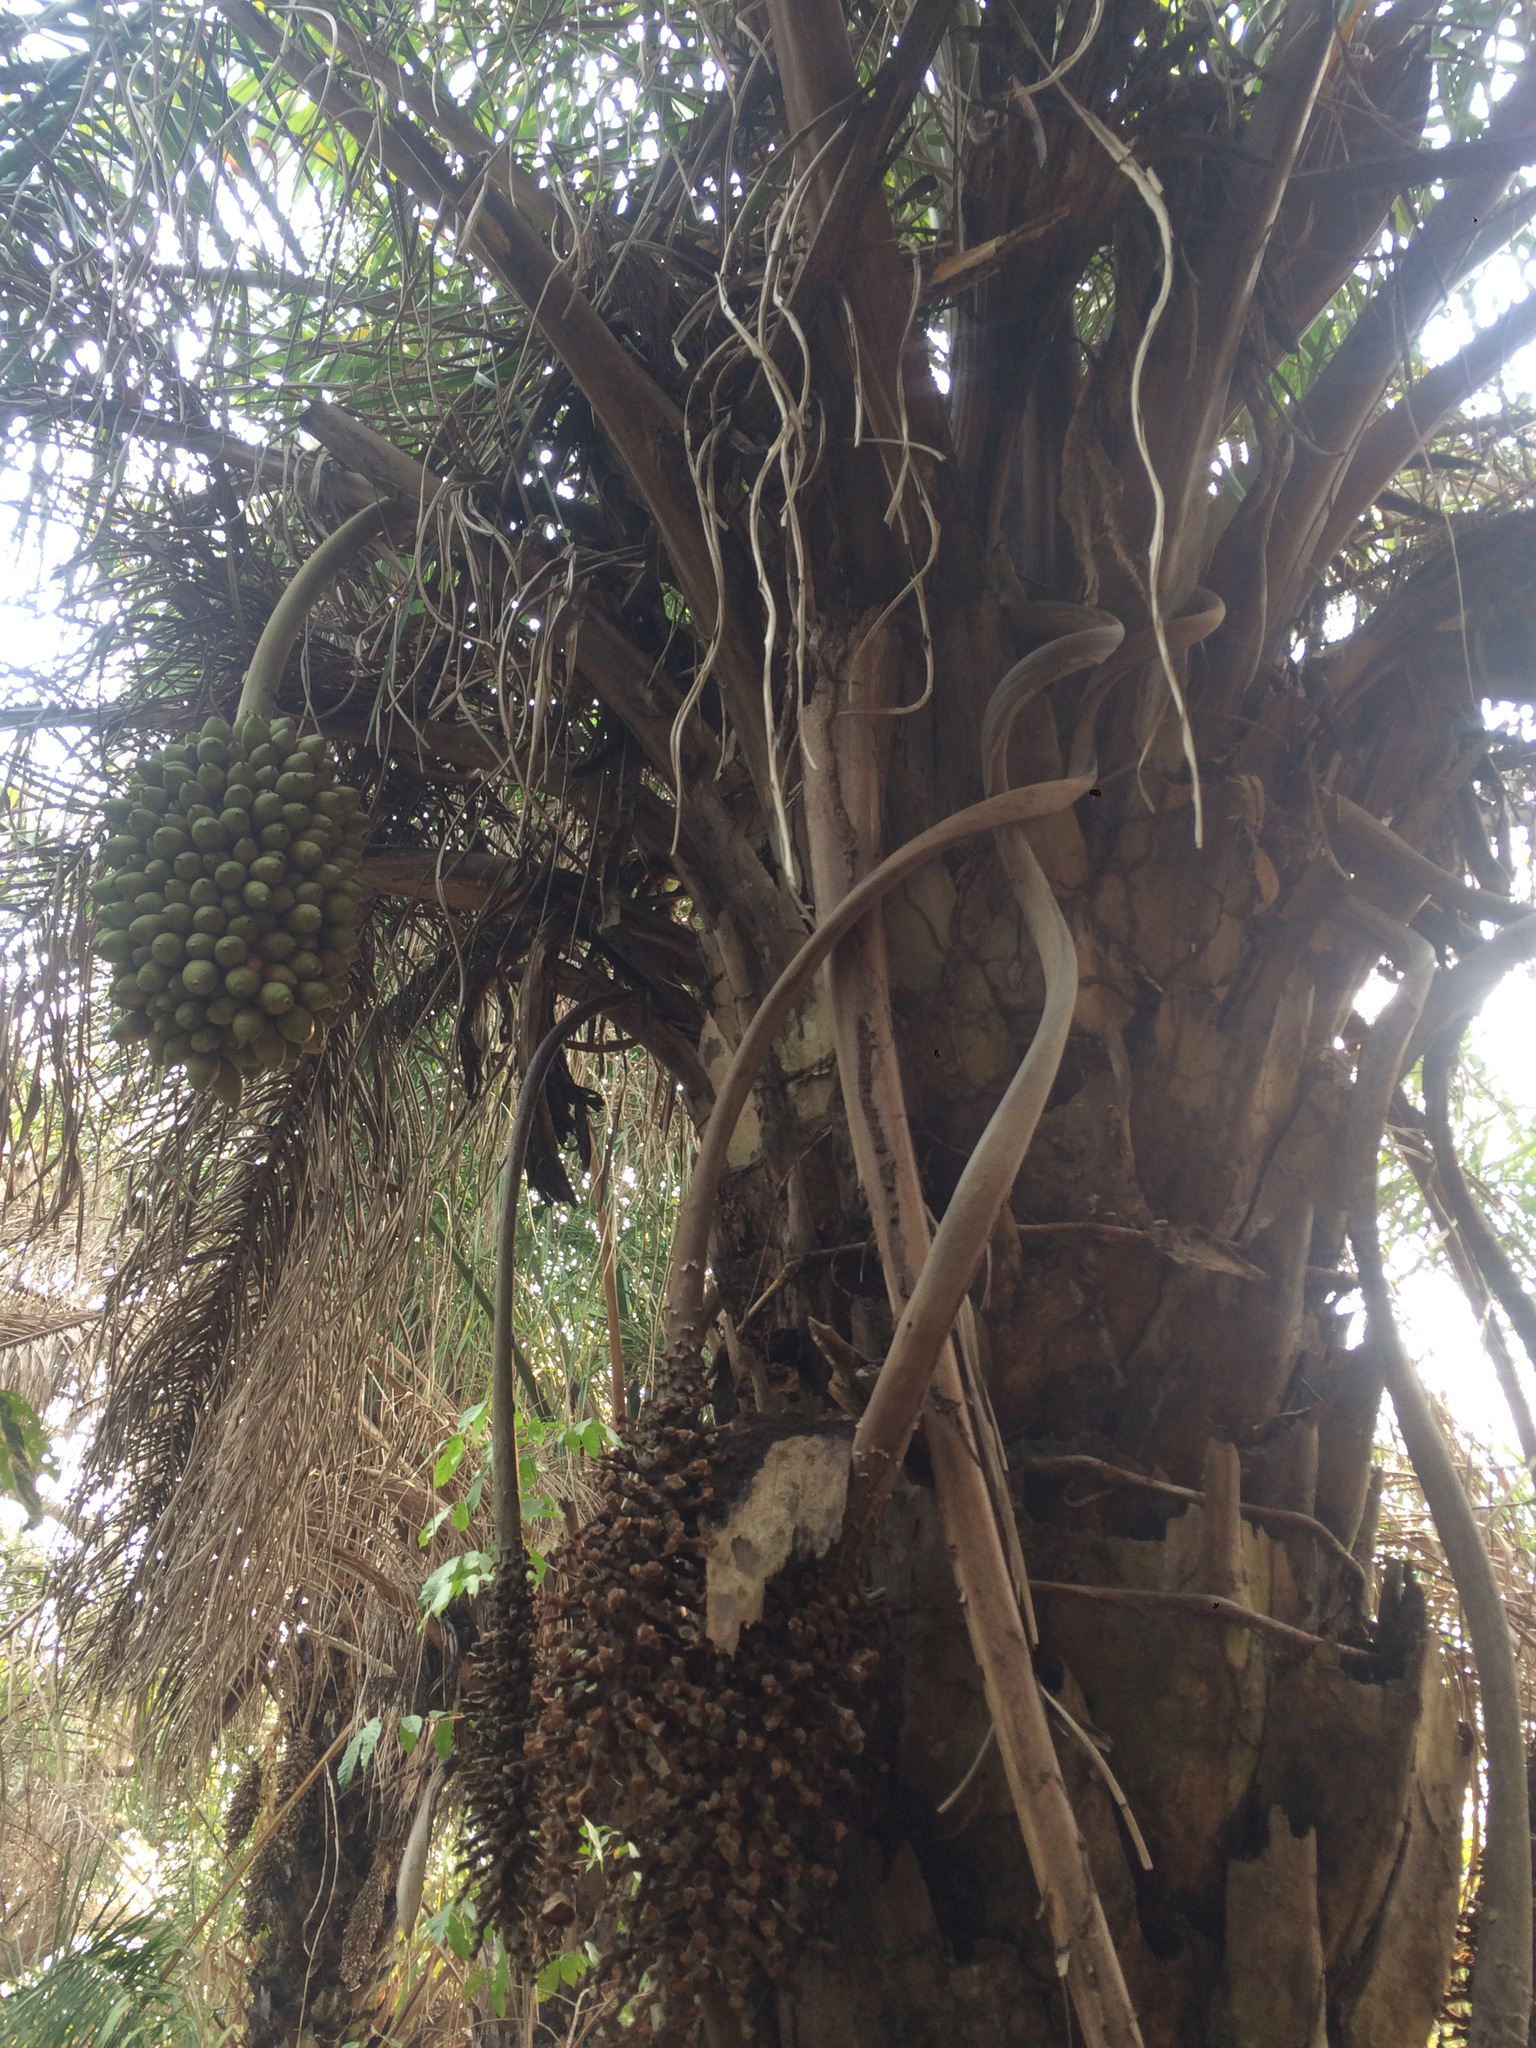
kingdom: Plantae
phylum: Tracheophyta
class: Liliopsida
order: Arecales
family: Arecaceae
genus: Attalea
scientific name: Attalea phalerata
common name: Urucuri palm
